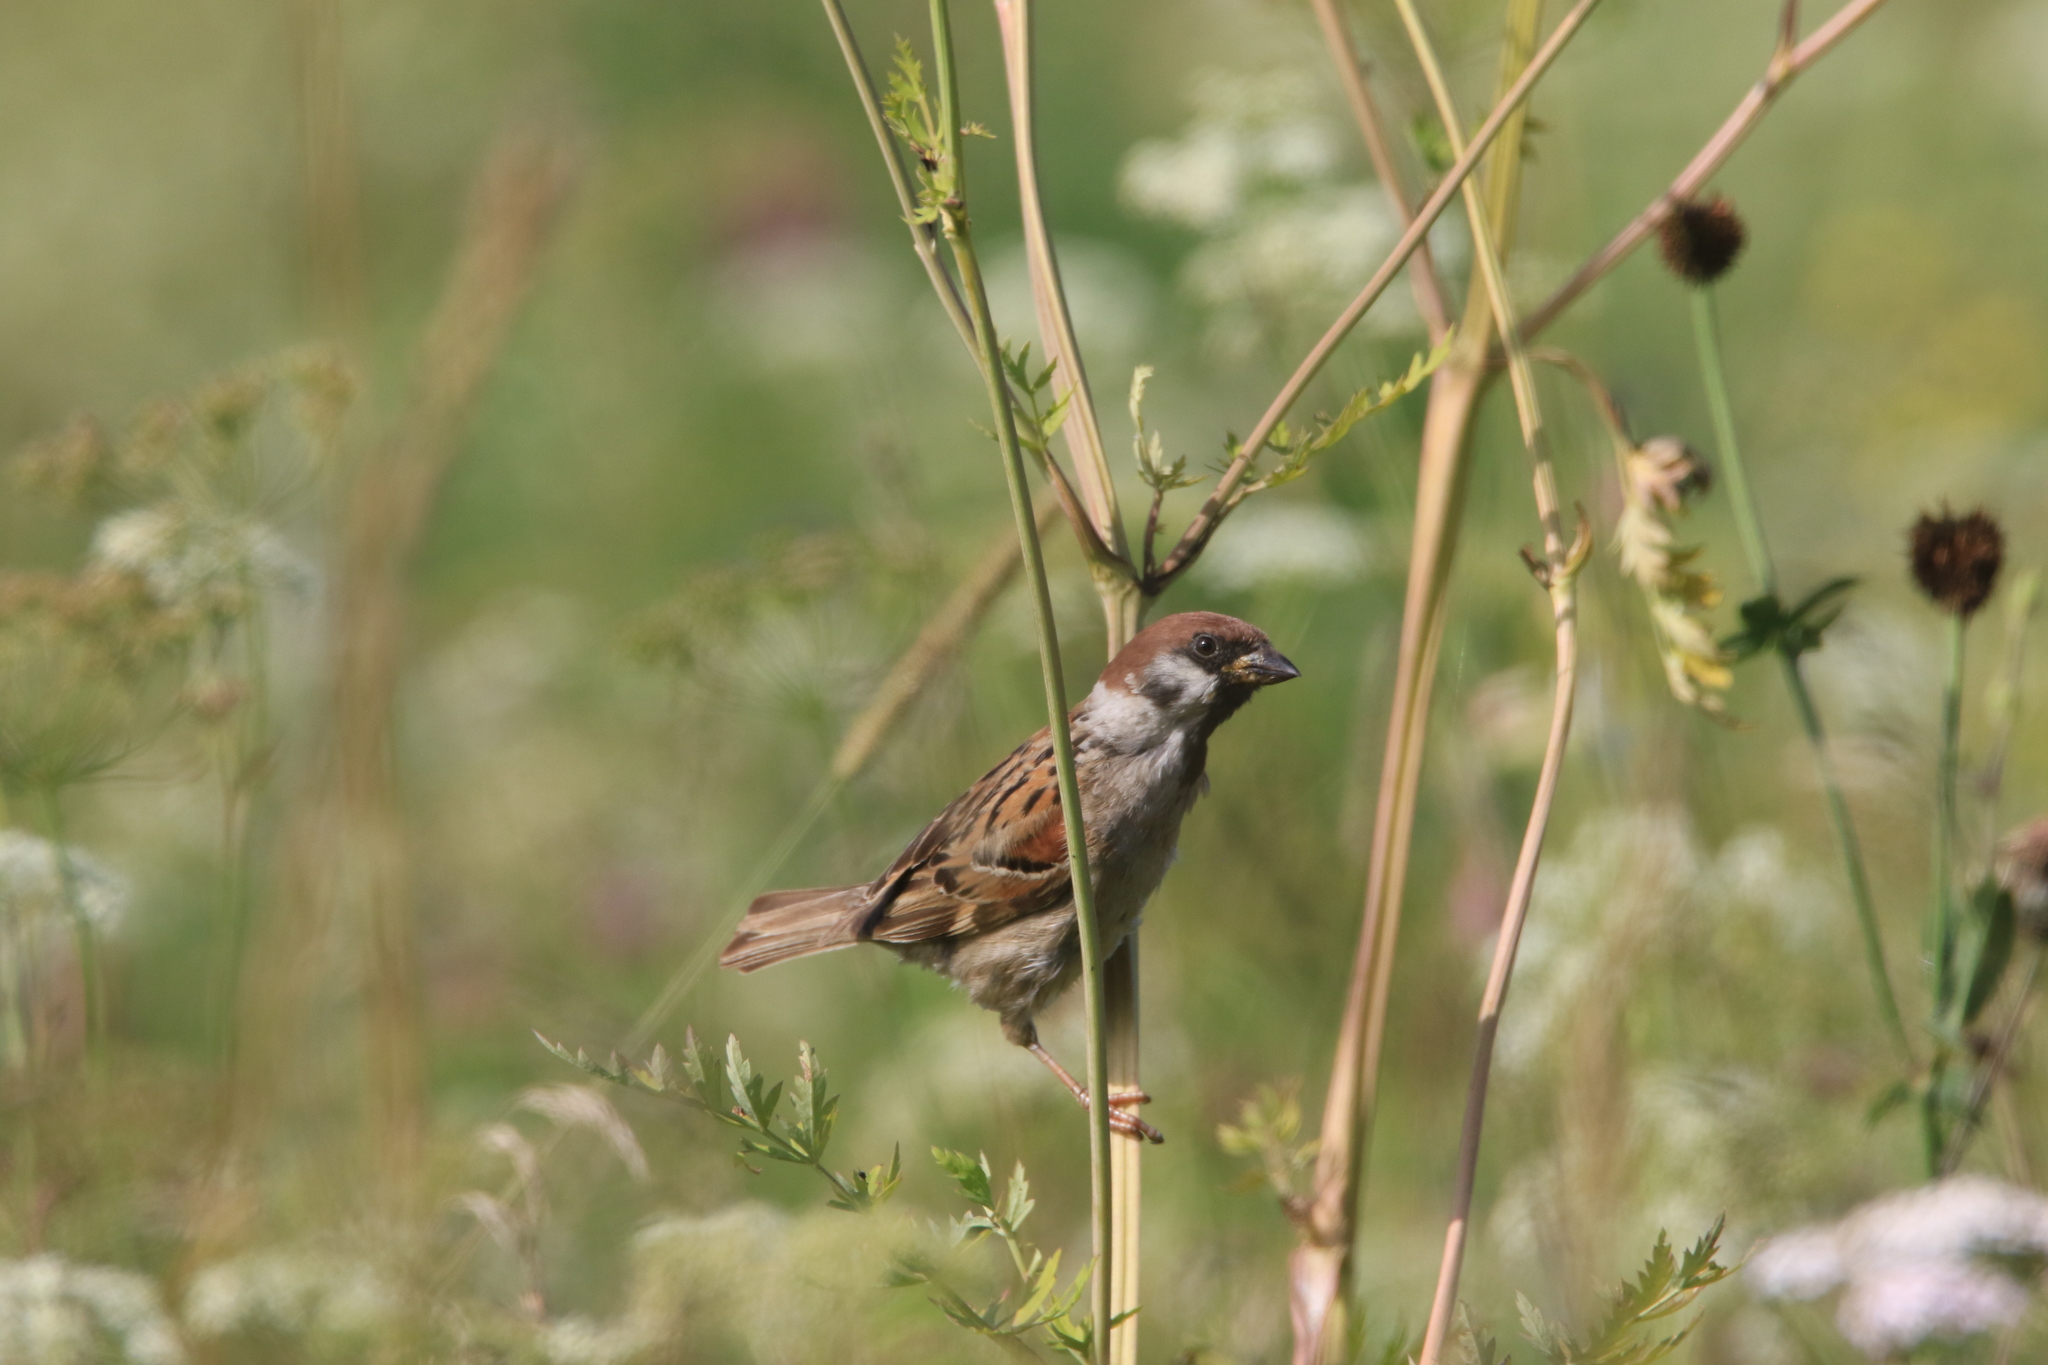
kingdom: Animalia
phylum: Chordata
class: Aves
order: Passeriformes
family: Passeridae
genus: Passer
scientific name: Passer montanus
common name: Eurasian tree sparrow
